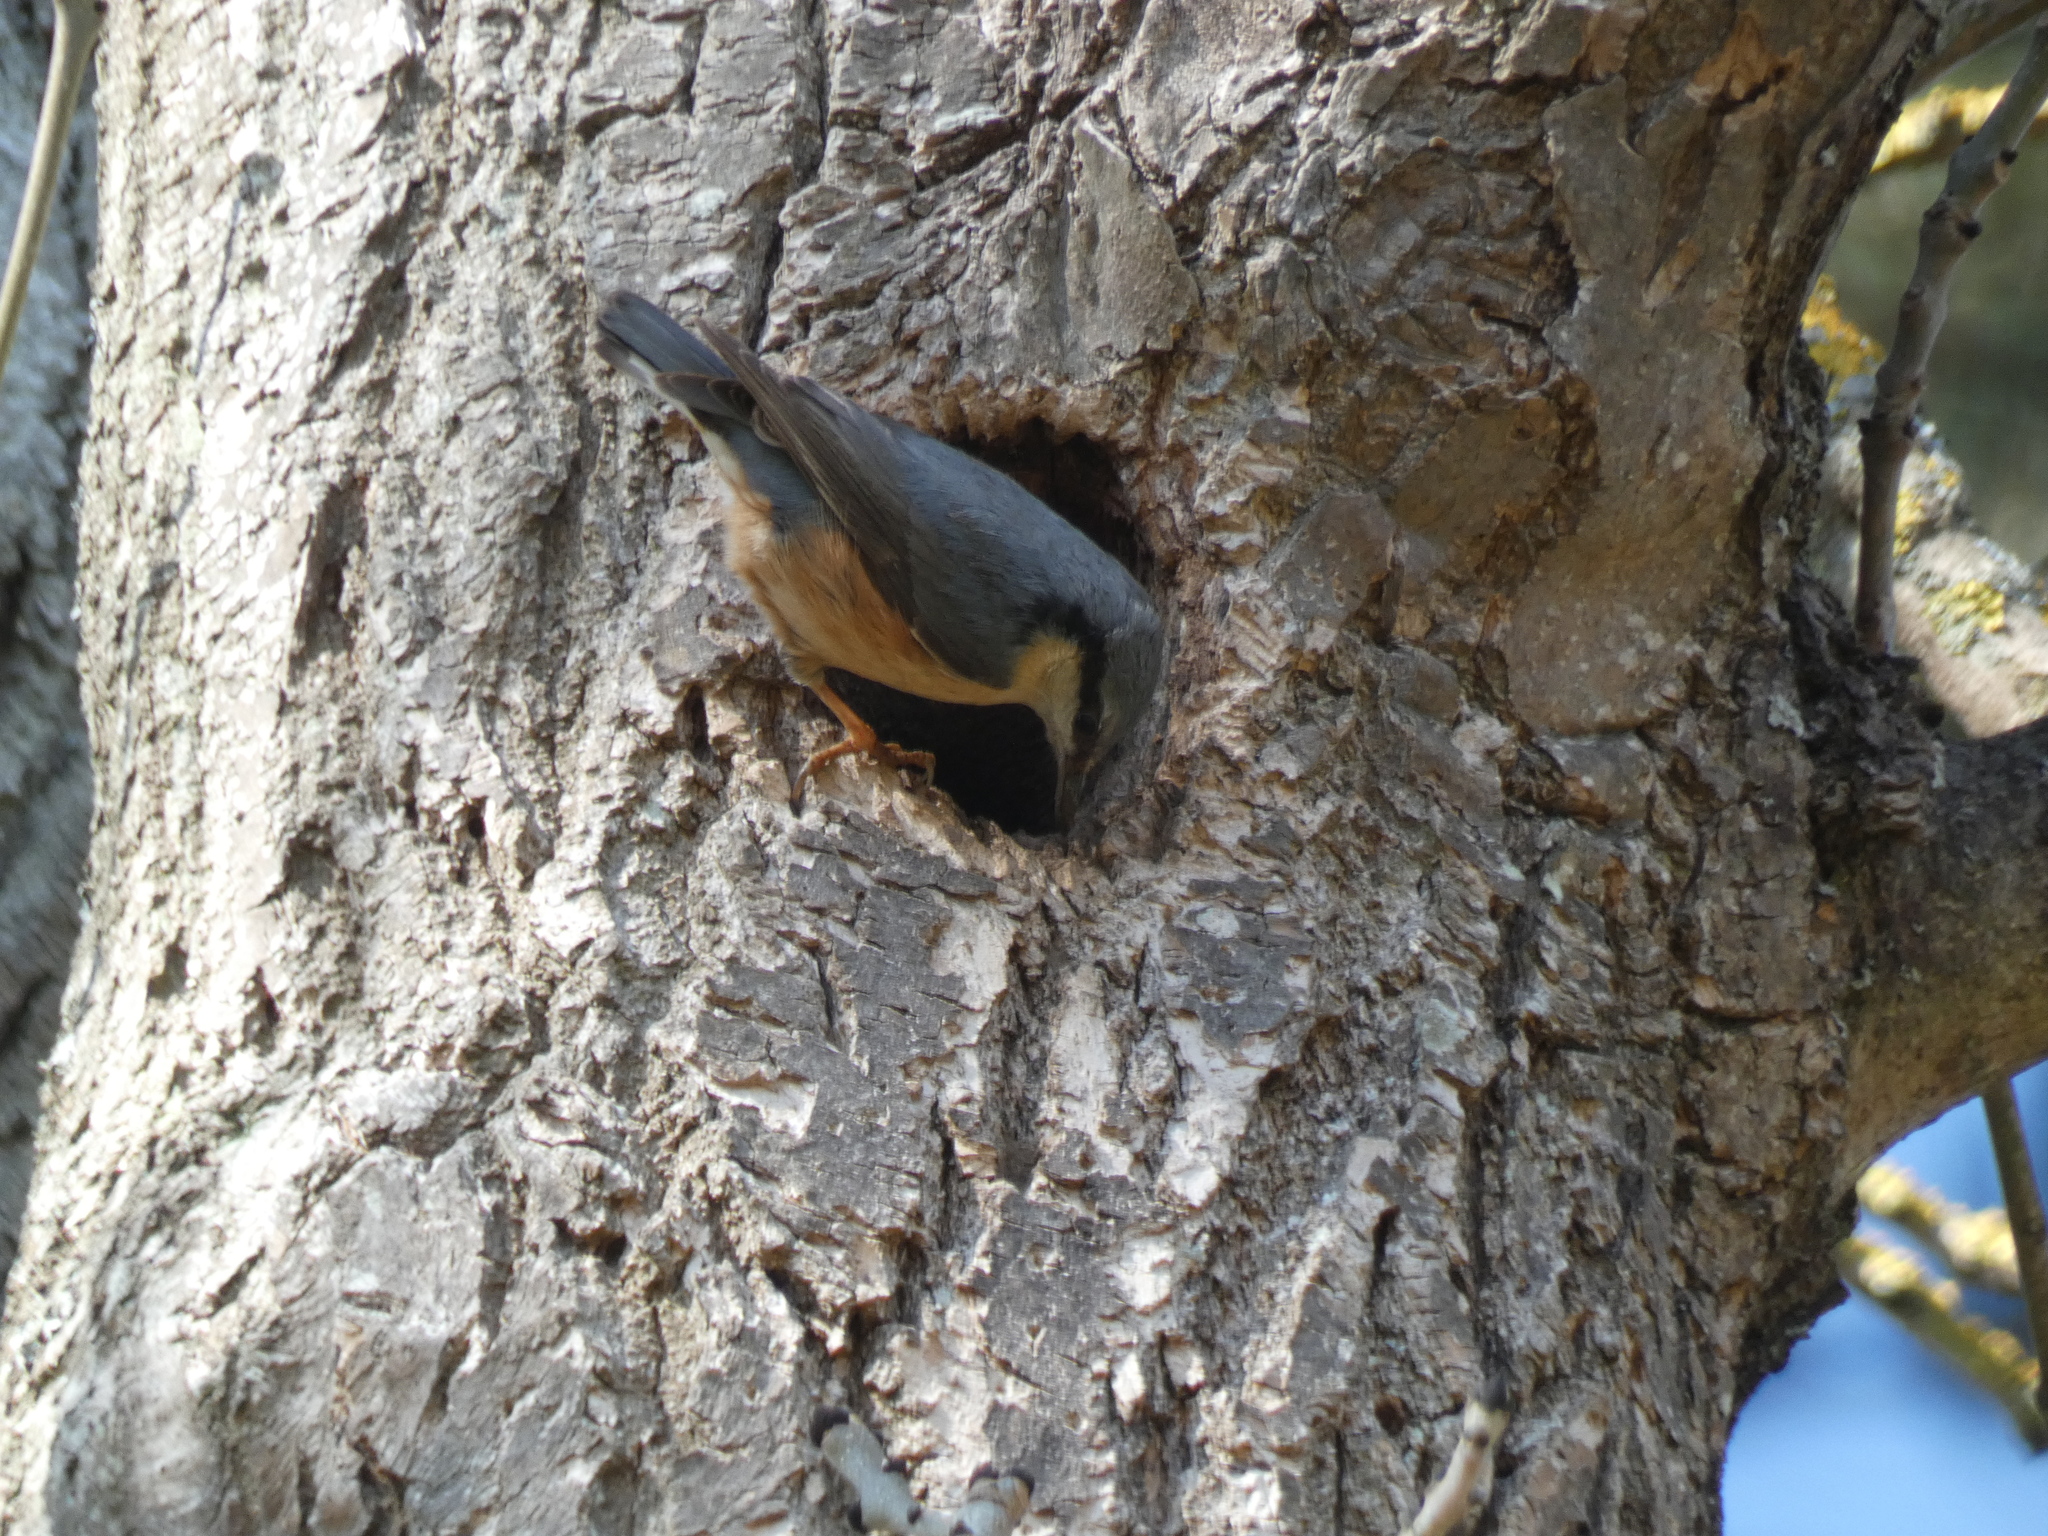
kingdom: Animalia
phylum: Chordata
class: Aves
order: Passeriformes
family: Sittidae
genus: Sitta
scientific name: Sitta europaea
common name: Eurasian nuthatch
